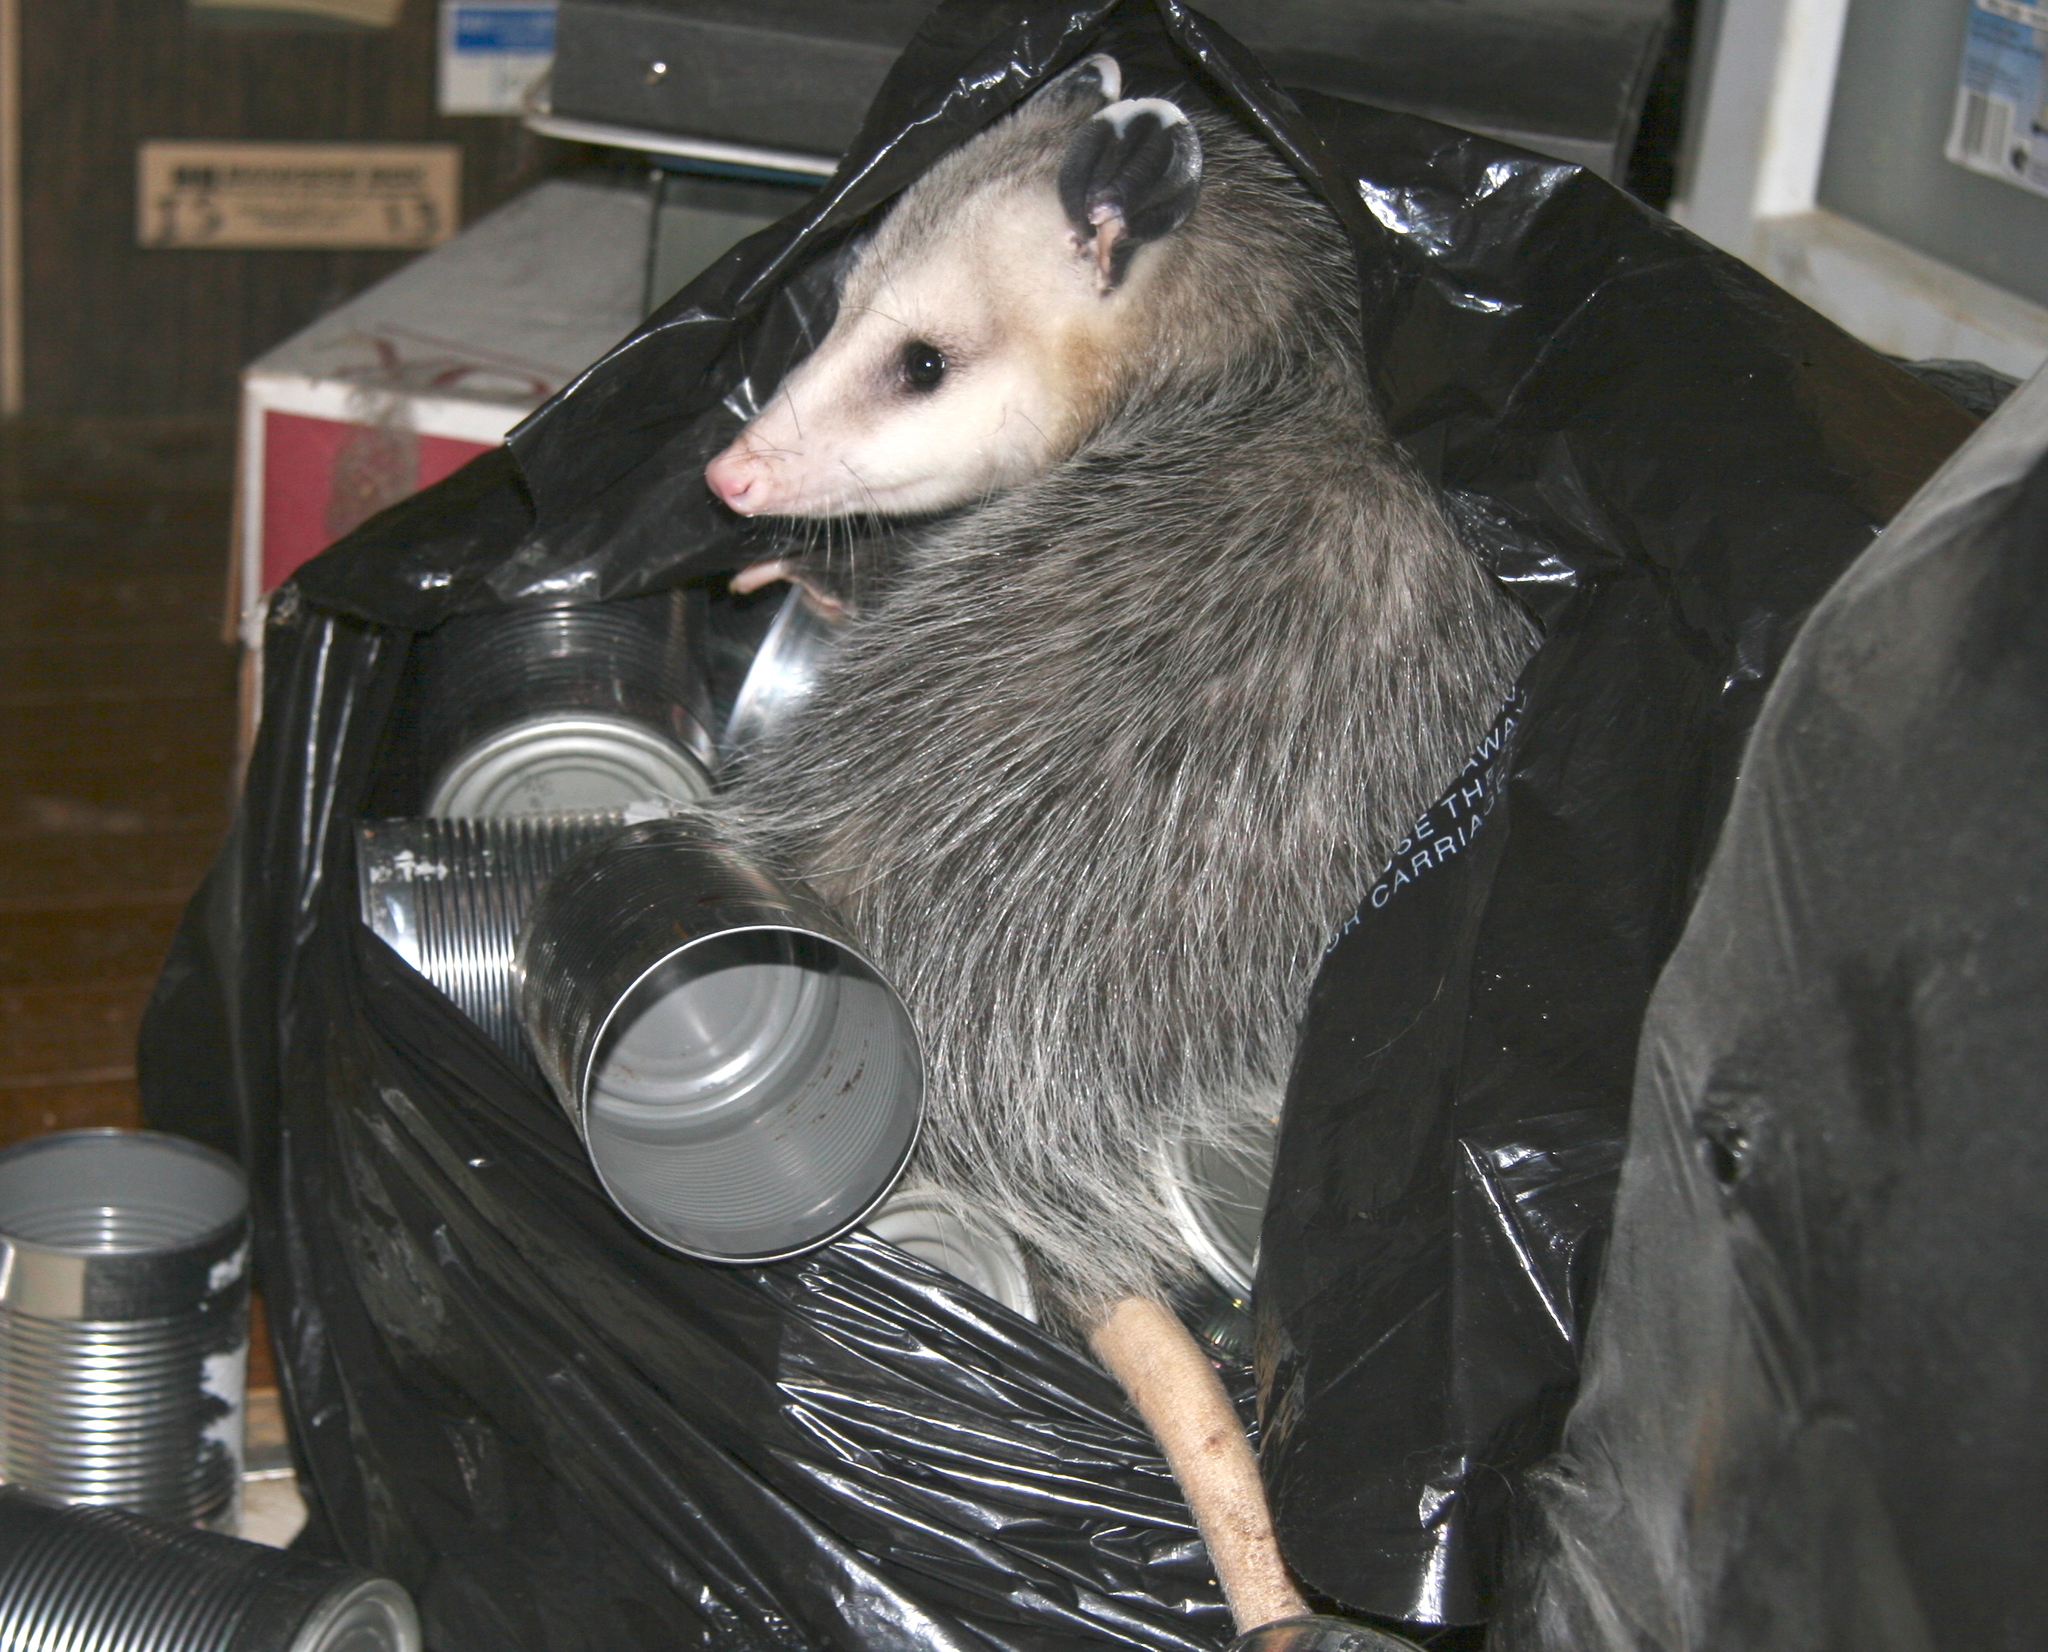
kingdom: Animalia
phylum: Chordata
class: Mammalia
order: Didelphimorphia
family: Didelphidae
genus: Didelphis
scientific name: Didelphis virginiana
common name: Virginia opossum
